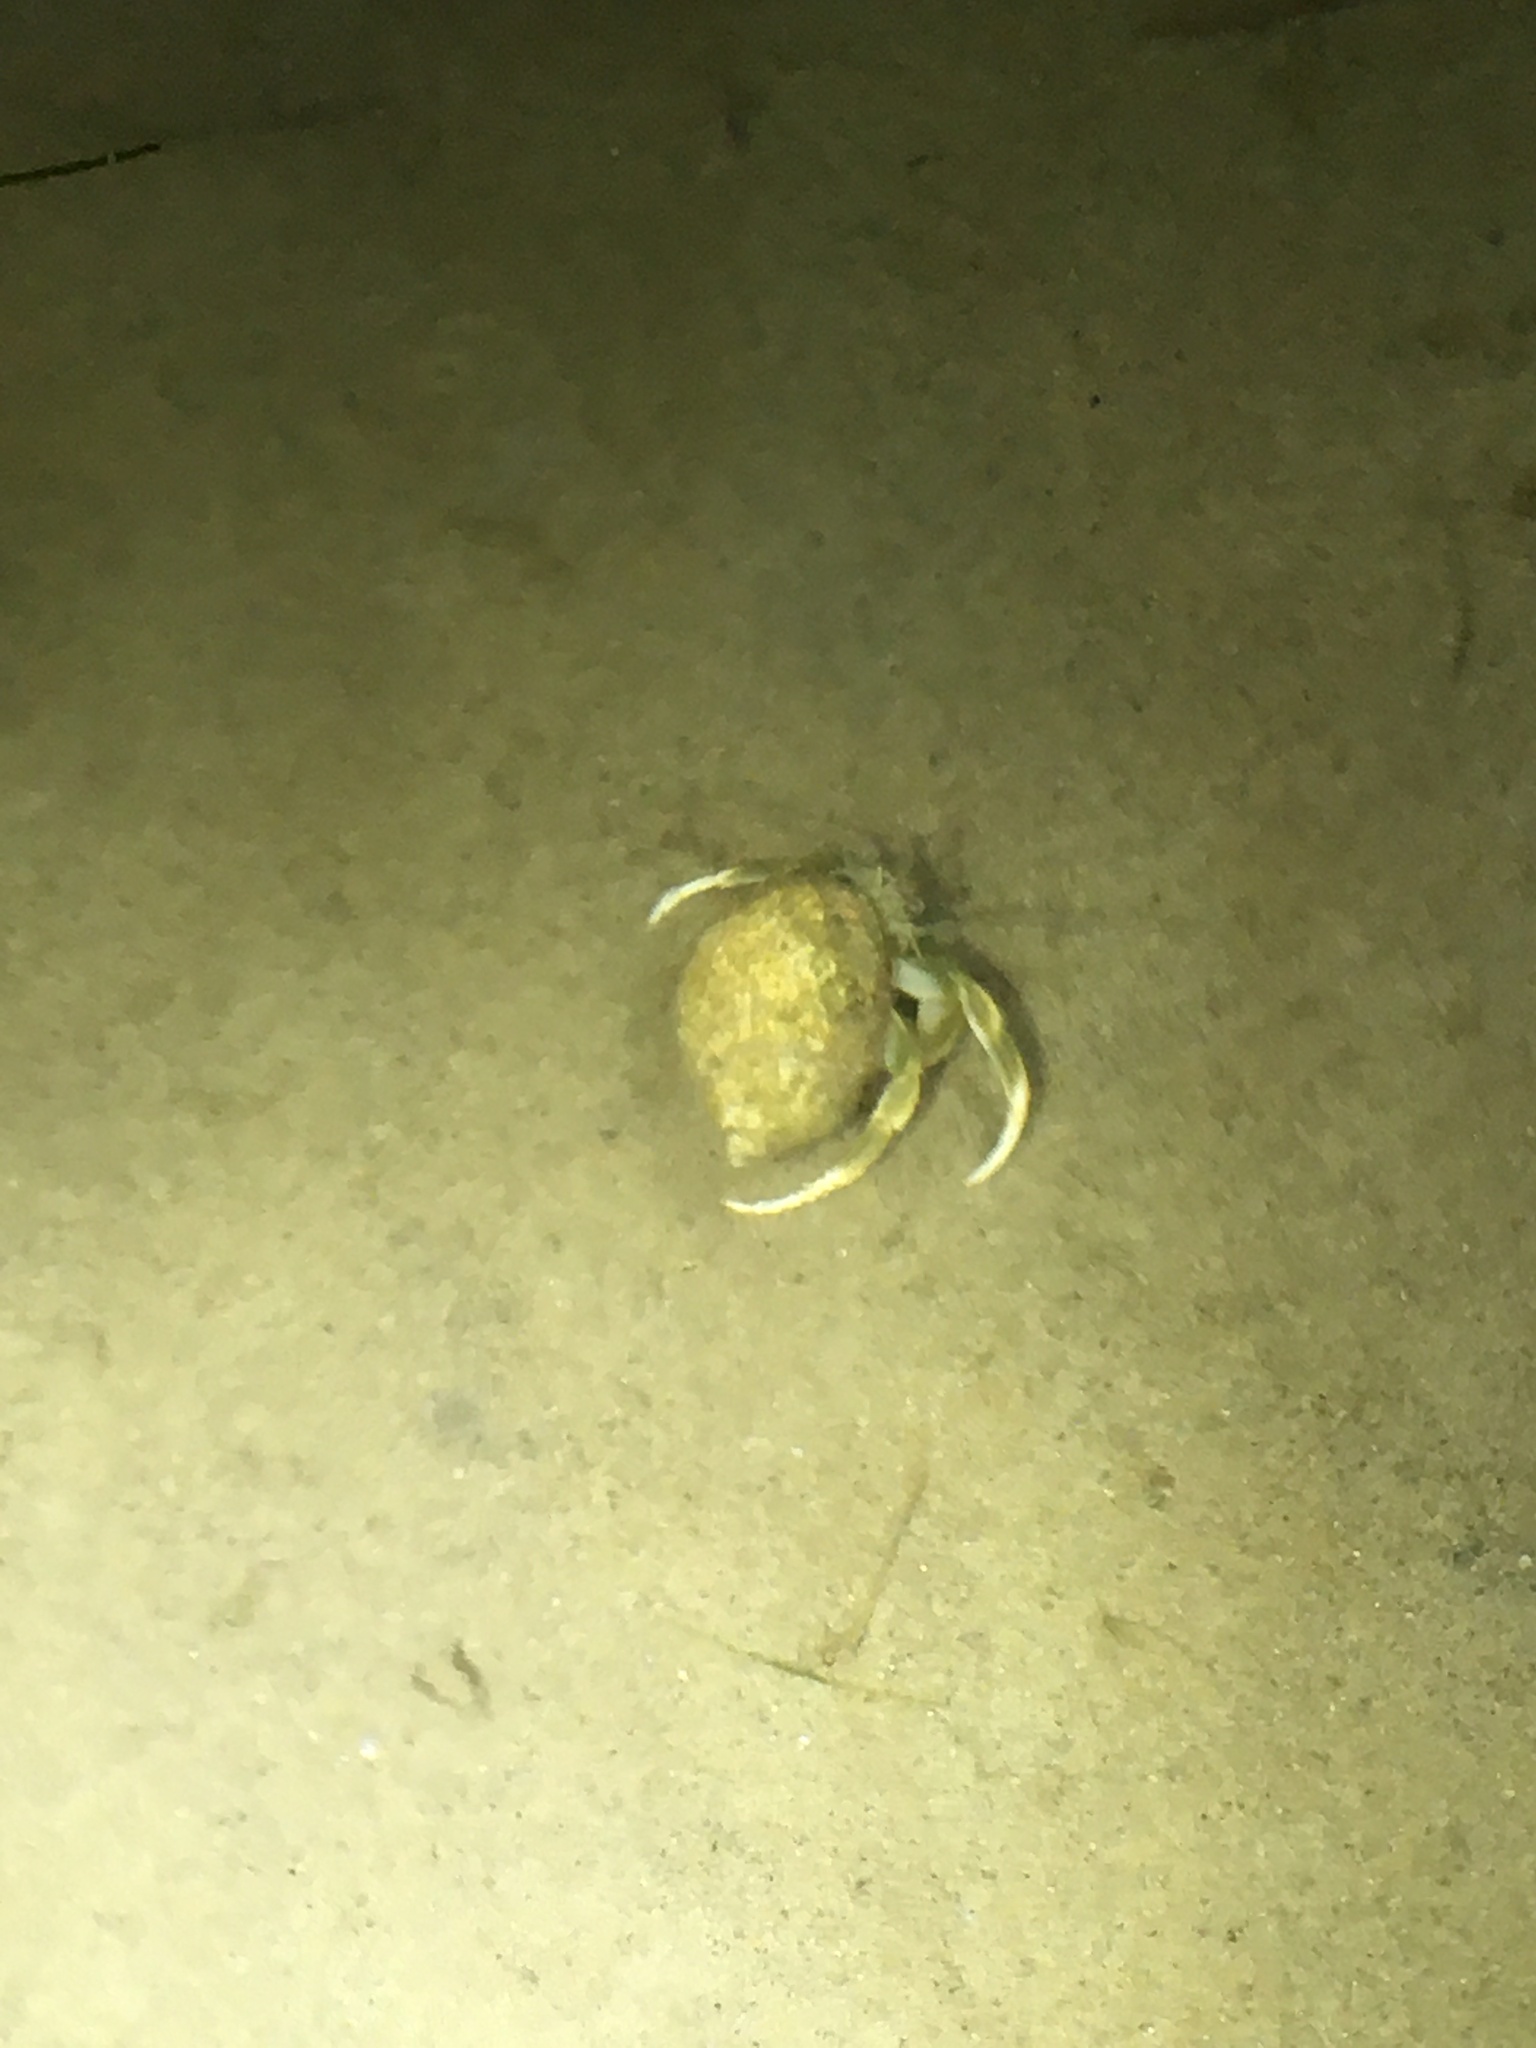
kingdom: Animalia
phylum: Arthropoda
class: Malacostraca
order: Decapoda
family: Paguridae
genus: Pagurus
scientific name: Pagurus longicarpus
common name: Long-armed hermit crab
